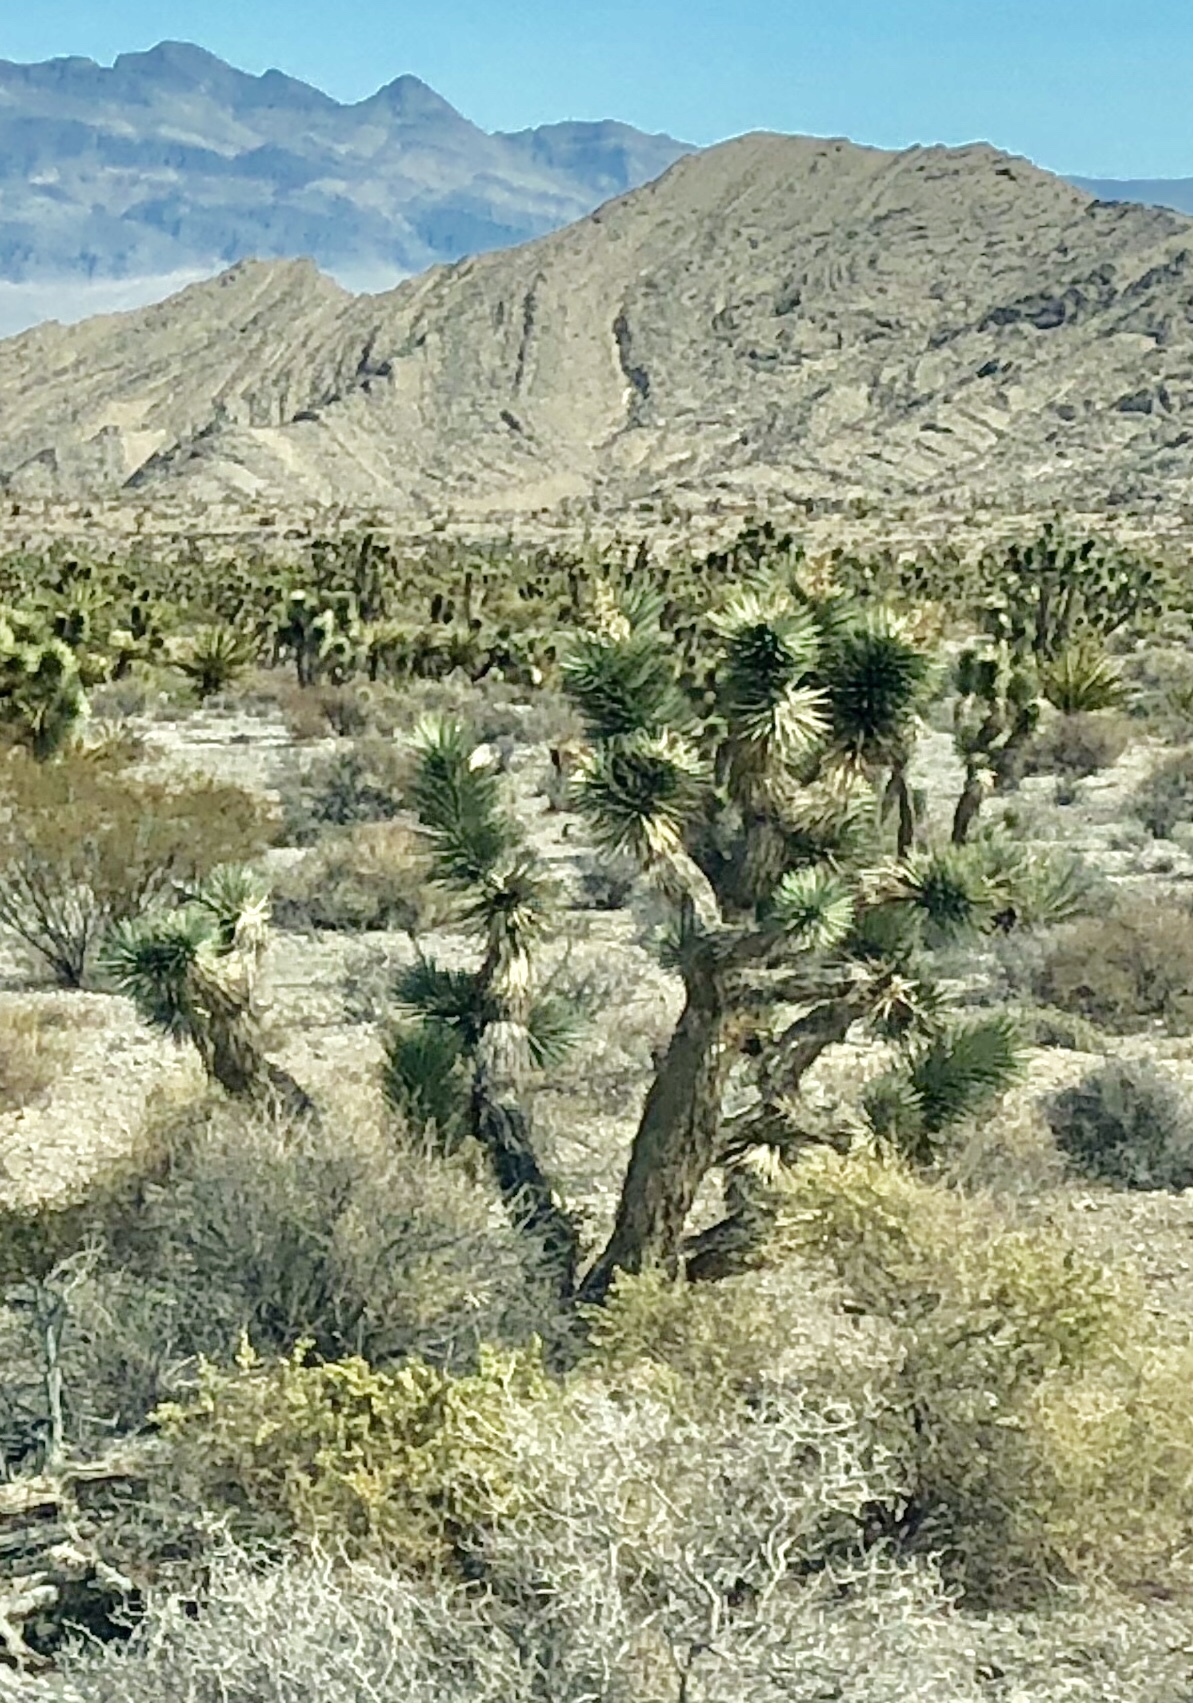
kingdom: Plantae
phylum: Tracheophyta
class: Liliopsida
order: Asparagales
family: Asparagaceae
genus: Yucca
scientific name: Yucca brevifolia
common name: Joshua tree
